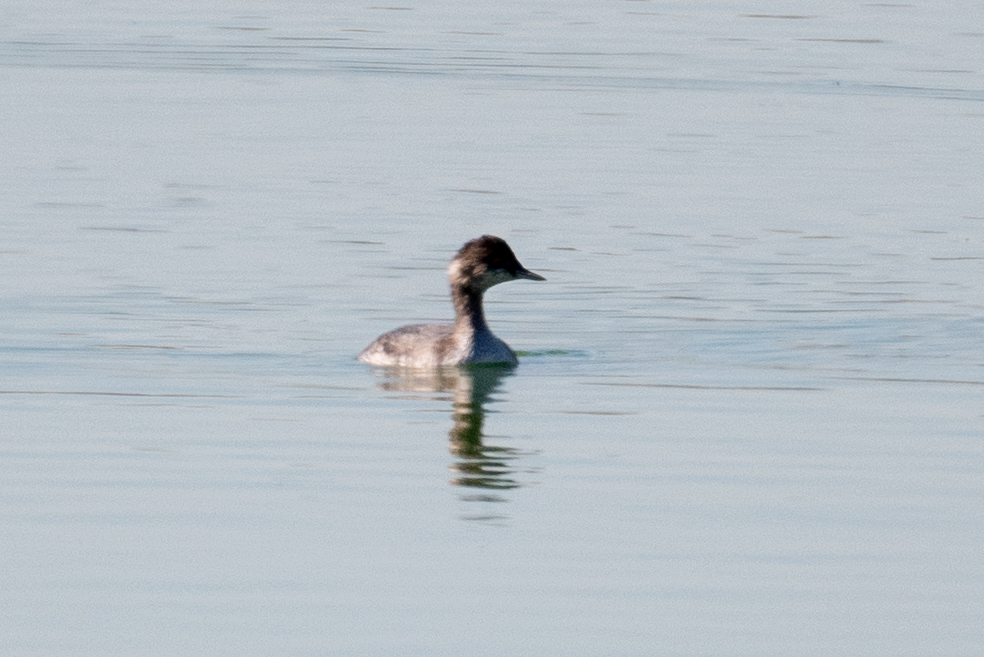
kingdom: Animalia
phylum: Chordata
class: Aves
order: Podicipediformes
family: Podicipedidae
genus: Podiceps
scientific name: Podiceps nigricollis
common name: Black-necked grebe
